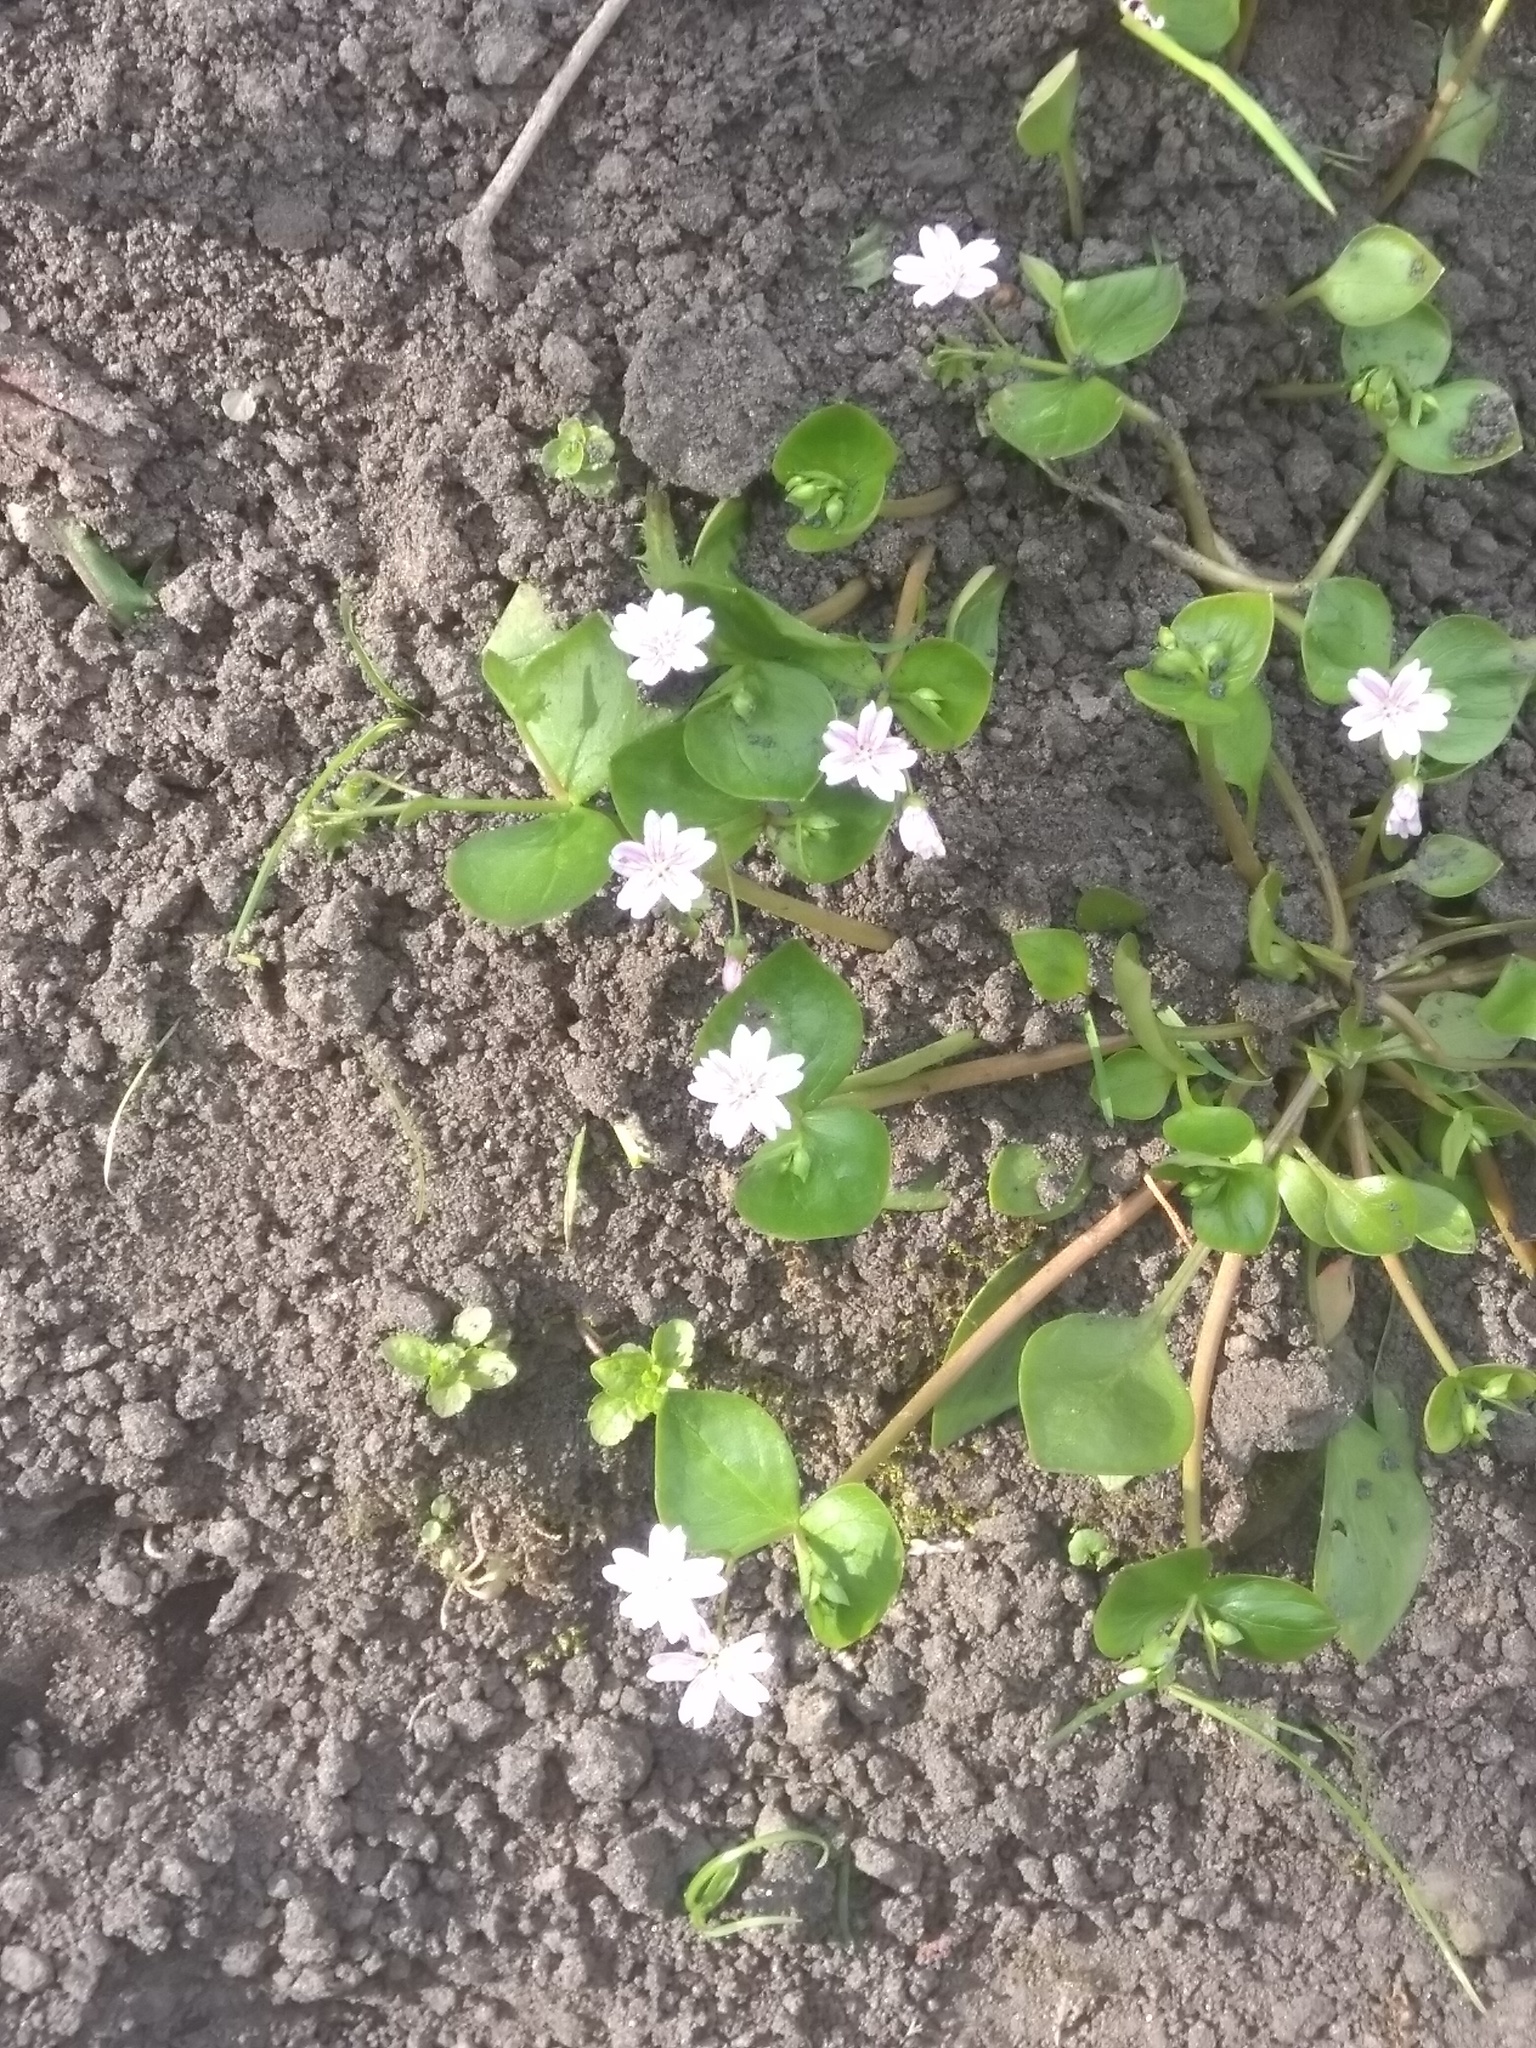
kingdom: Plantae
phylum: Tracheophyta
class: Magnoliopsida
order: Caryophyllales
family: Montiaceae
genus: Claytonia
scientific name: Claytonia sibirica
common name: Pink purslane
